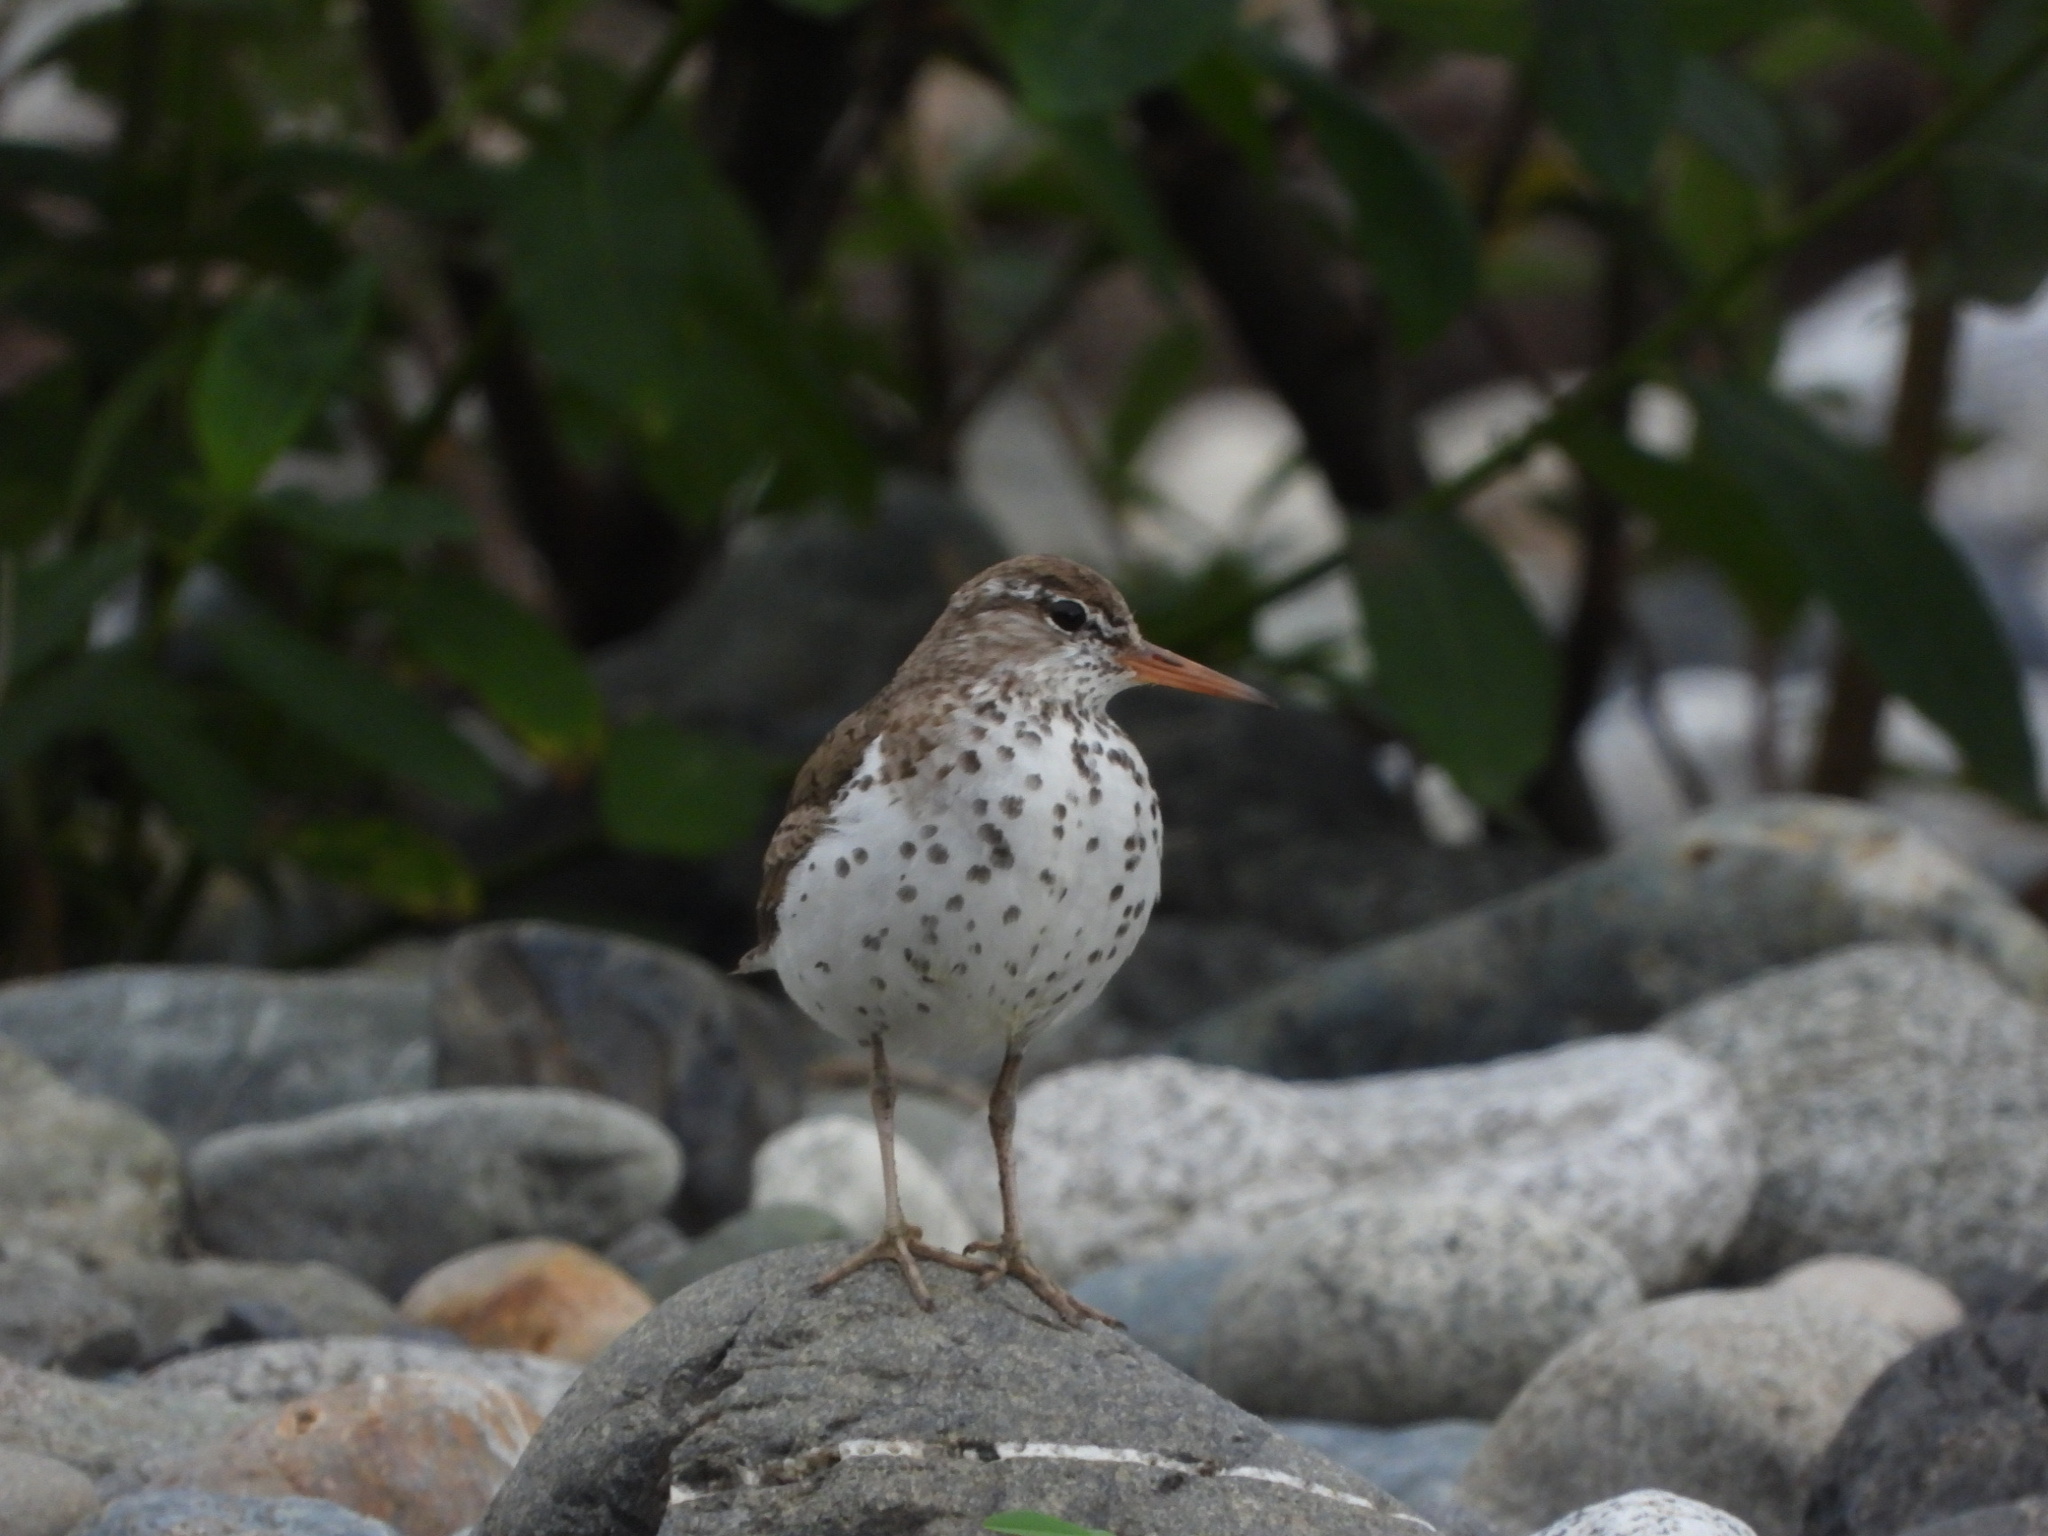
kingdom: Animalia
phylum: Chordata
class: Aves
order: Charadriiformes
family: Scolopacidae
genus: Actitis
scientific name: Actitis macularius
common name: Spotted sandpiper
